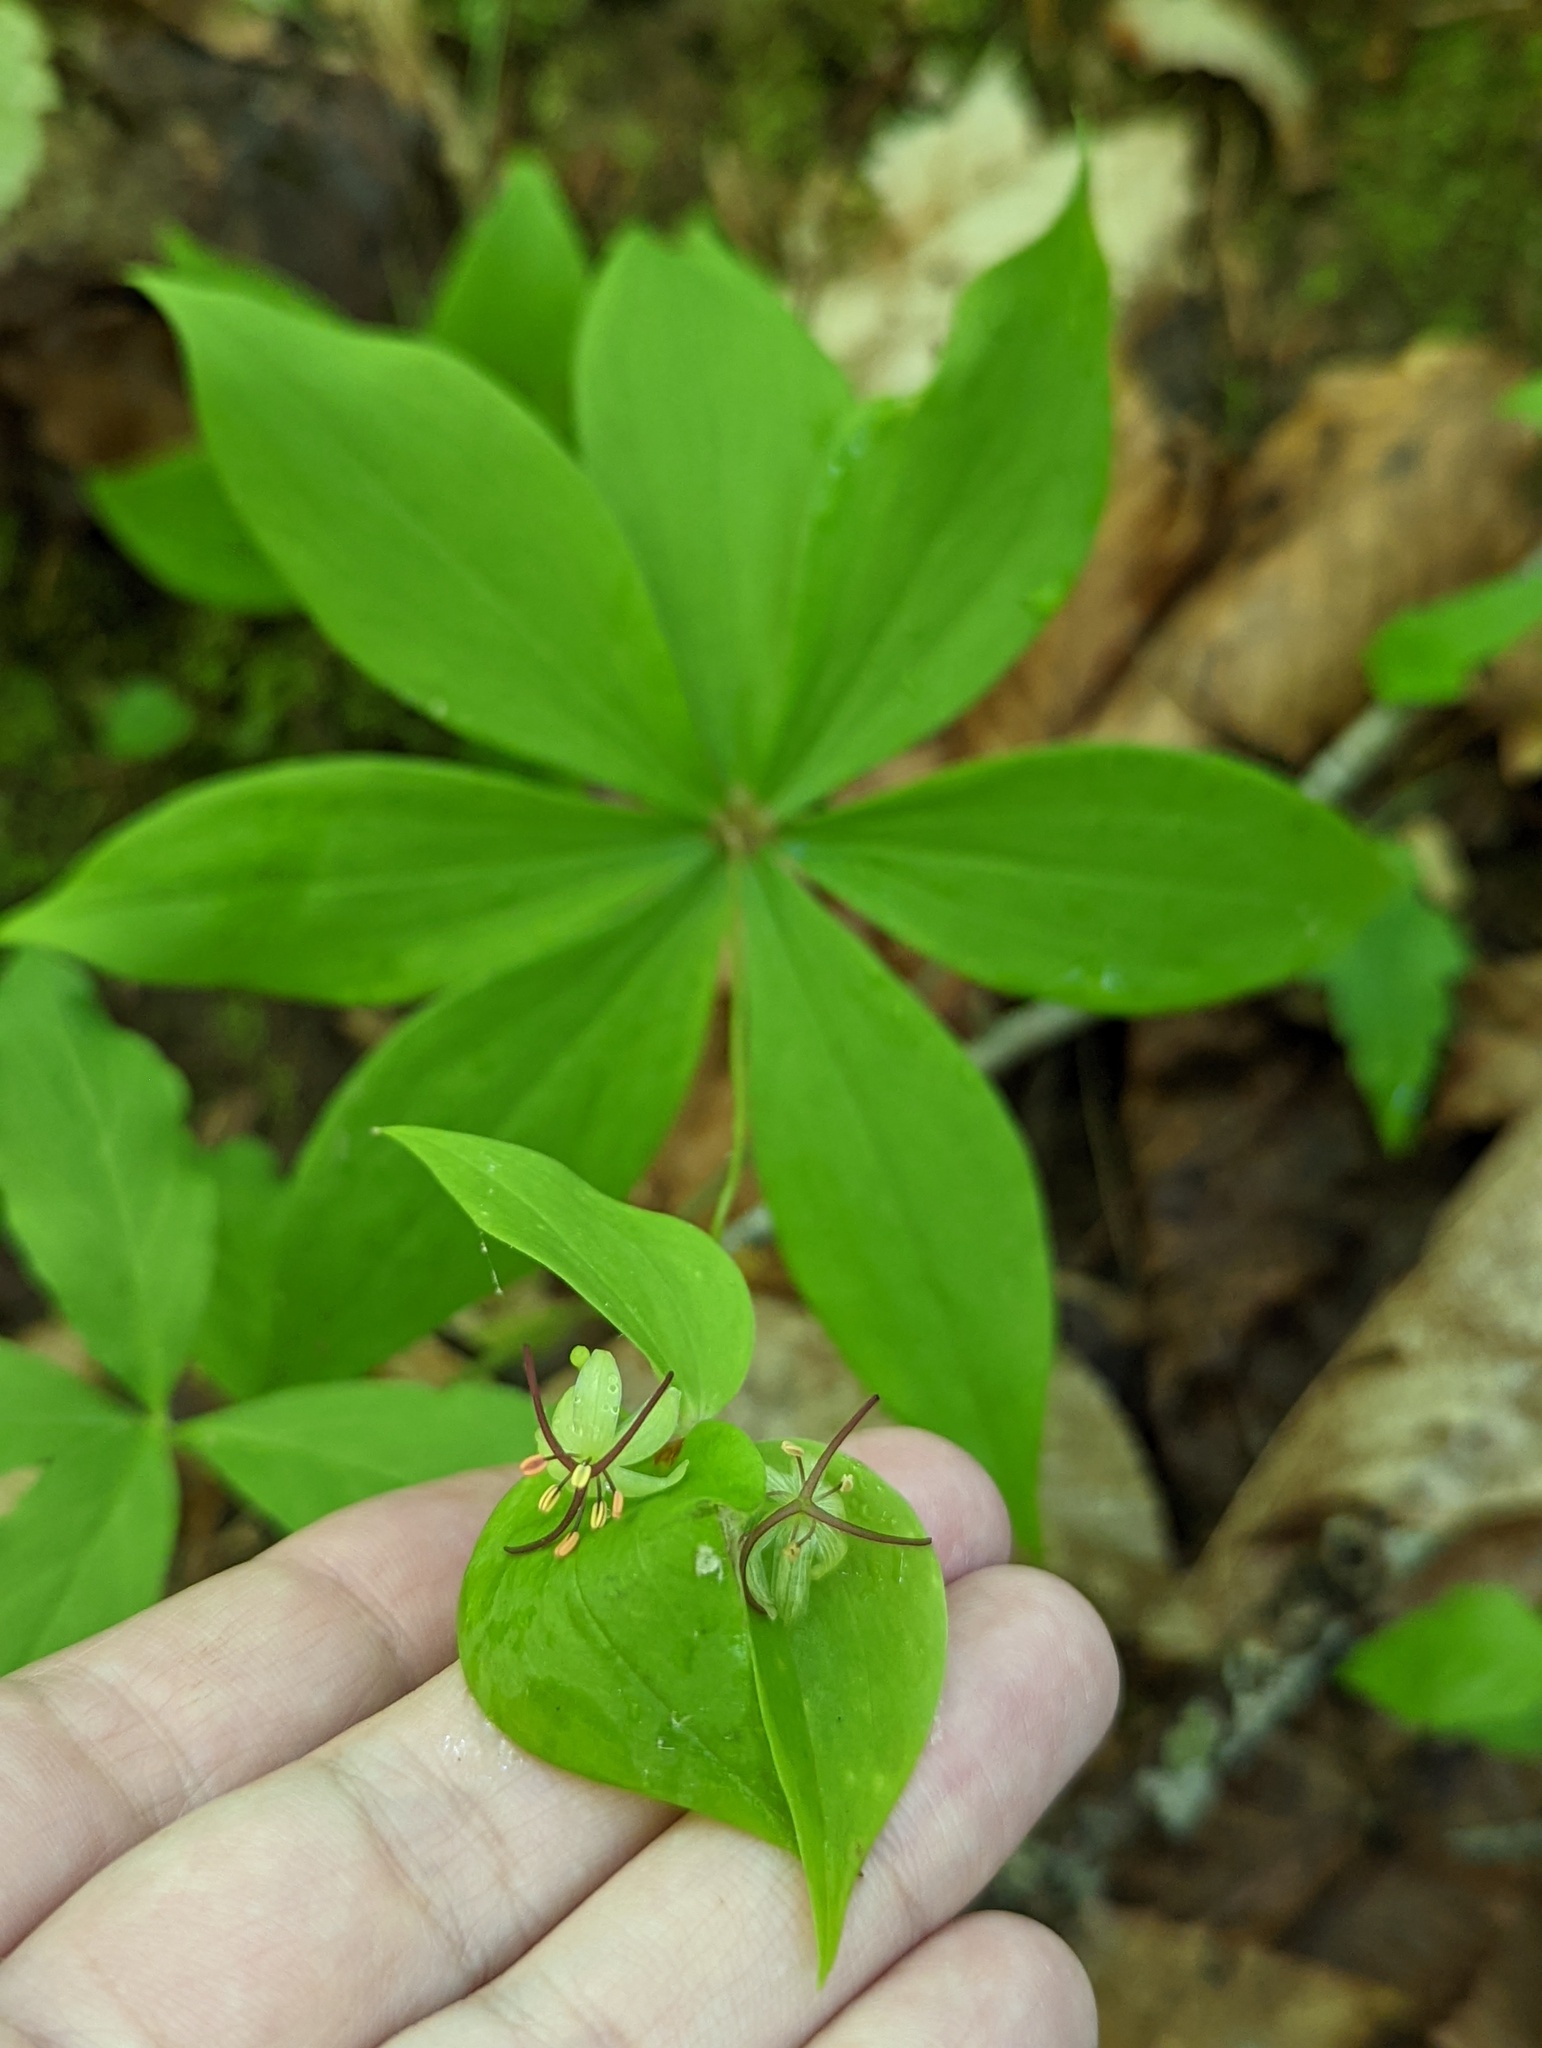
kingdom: Plantae
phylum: Tracheophyta
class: Liliopsida
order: Liliales
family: Liliaceae
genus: Medeola
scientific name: Medeola virginiana
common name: Indian cucumber-root
